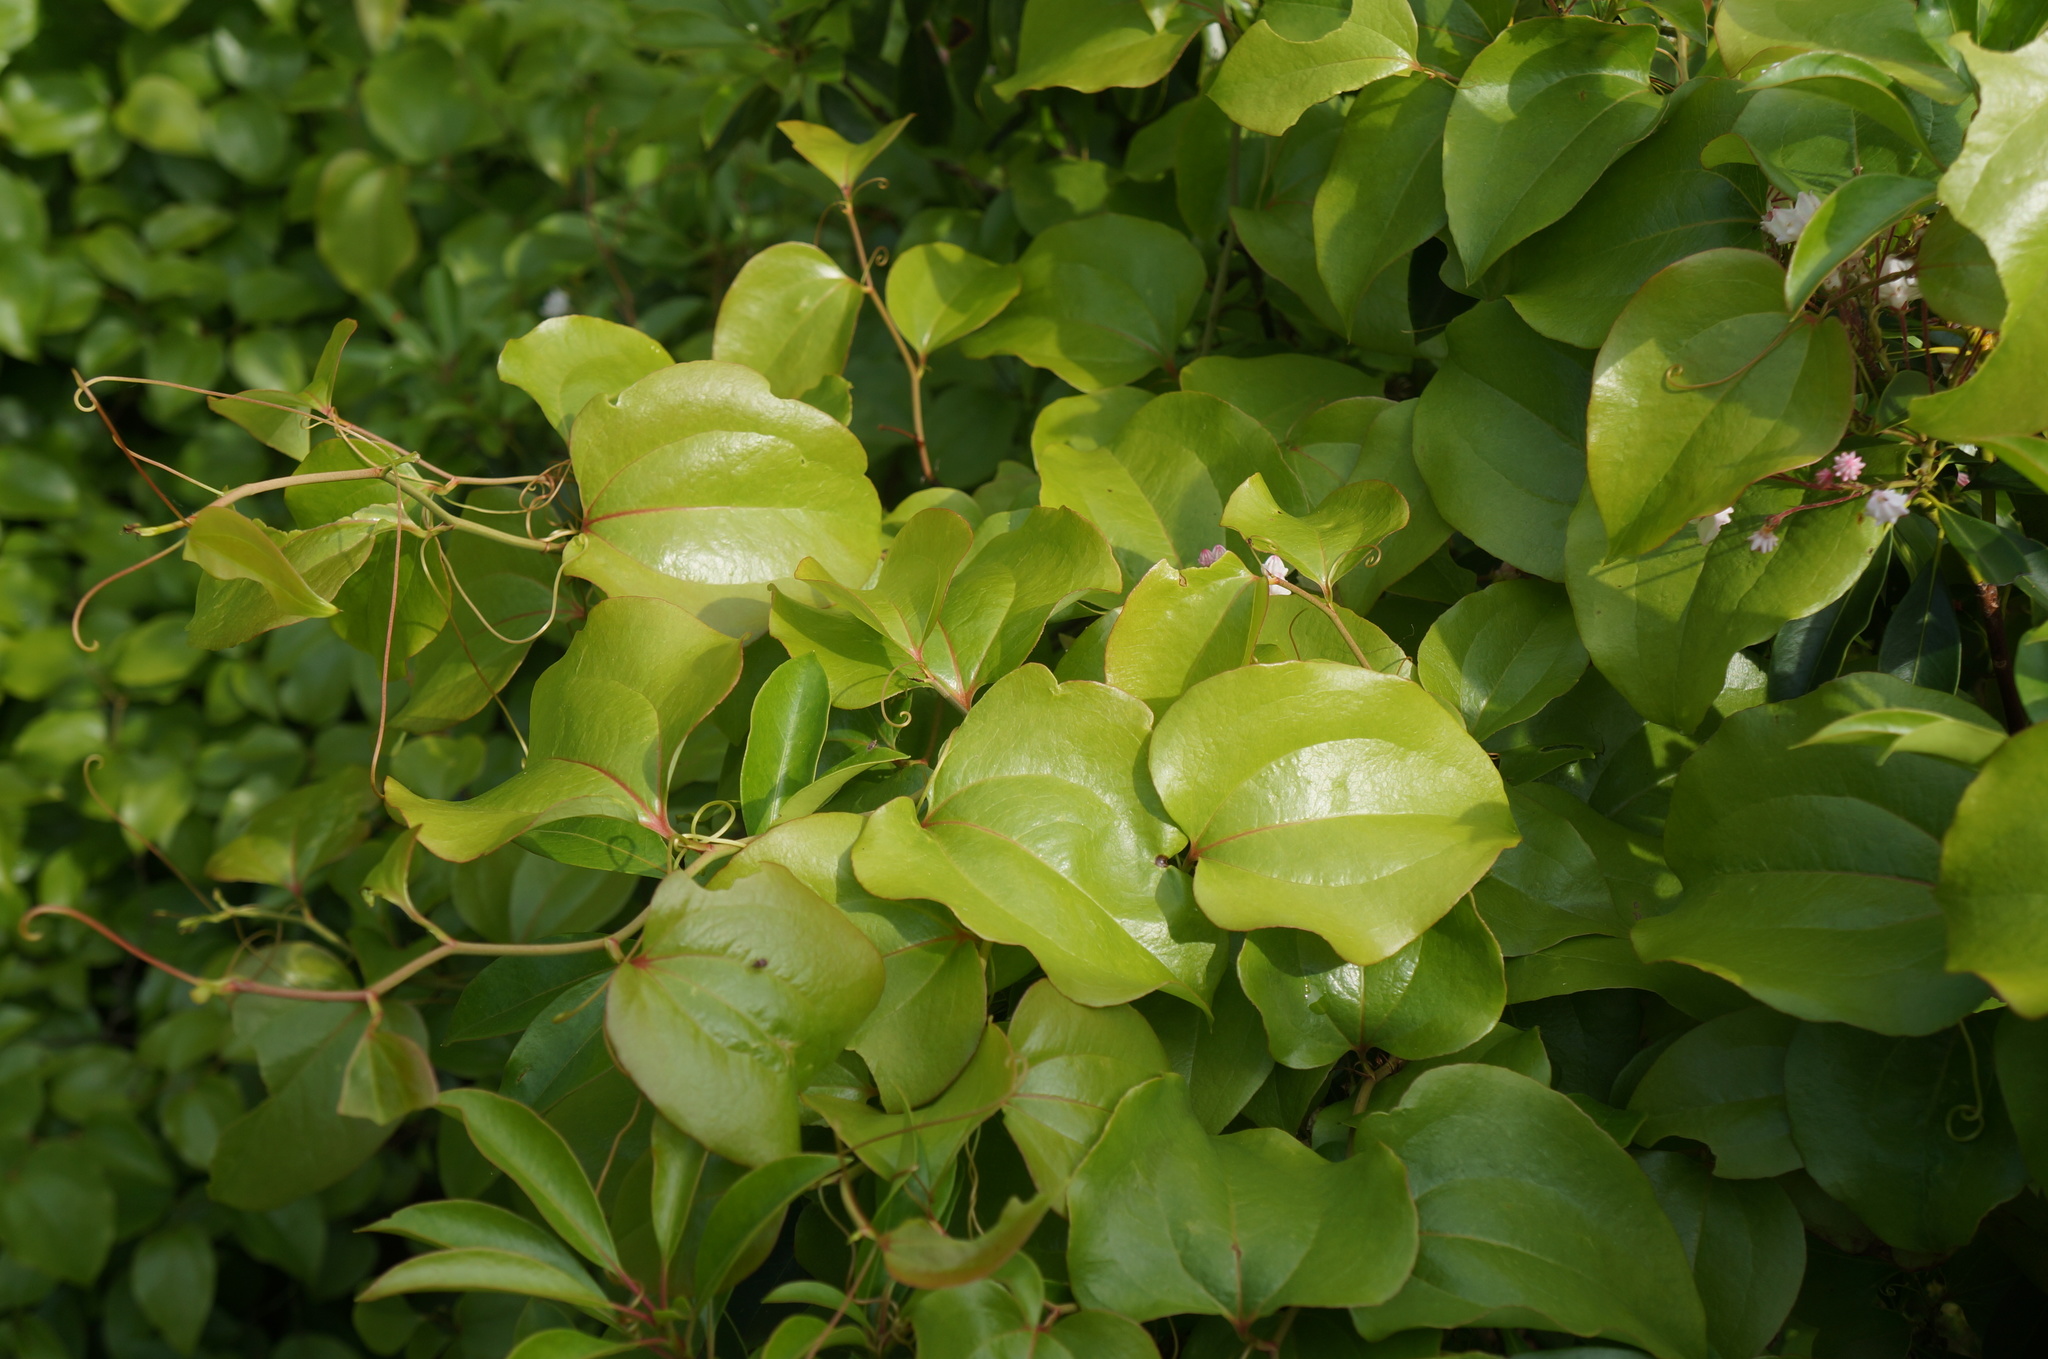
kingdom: Plantae
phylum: Tracheophyta
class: Liliopsida
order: Liliales
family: Smilacaceae
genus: Smilax
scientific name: Smilax rotundifolia
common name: Bullbriar
